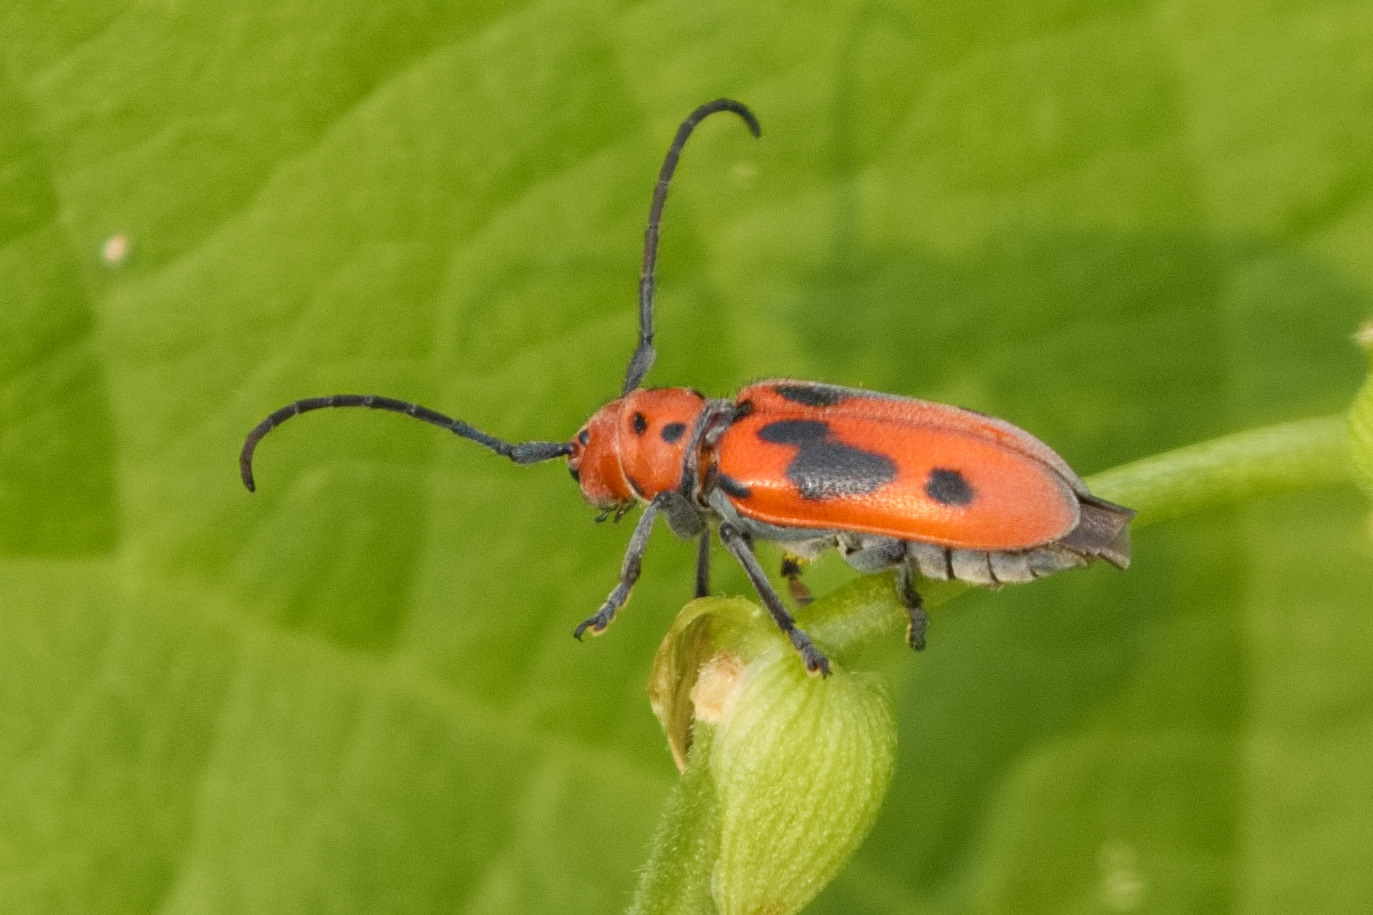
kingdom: Animalia
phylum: Arthropoda
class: Insecta
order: Coleoptera
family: Cerambycidae
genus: Tetraopes
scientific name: Tetraopes tetrophthalmus
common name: Red milkweed beetle
